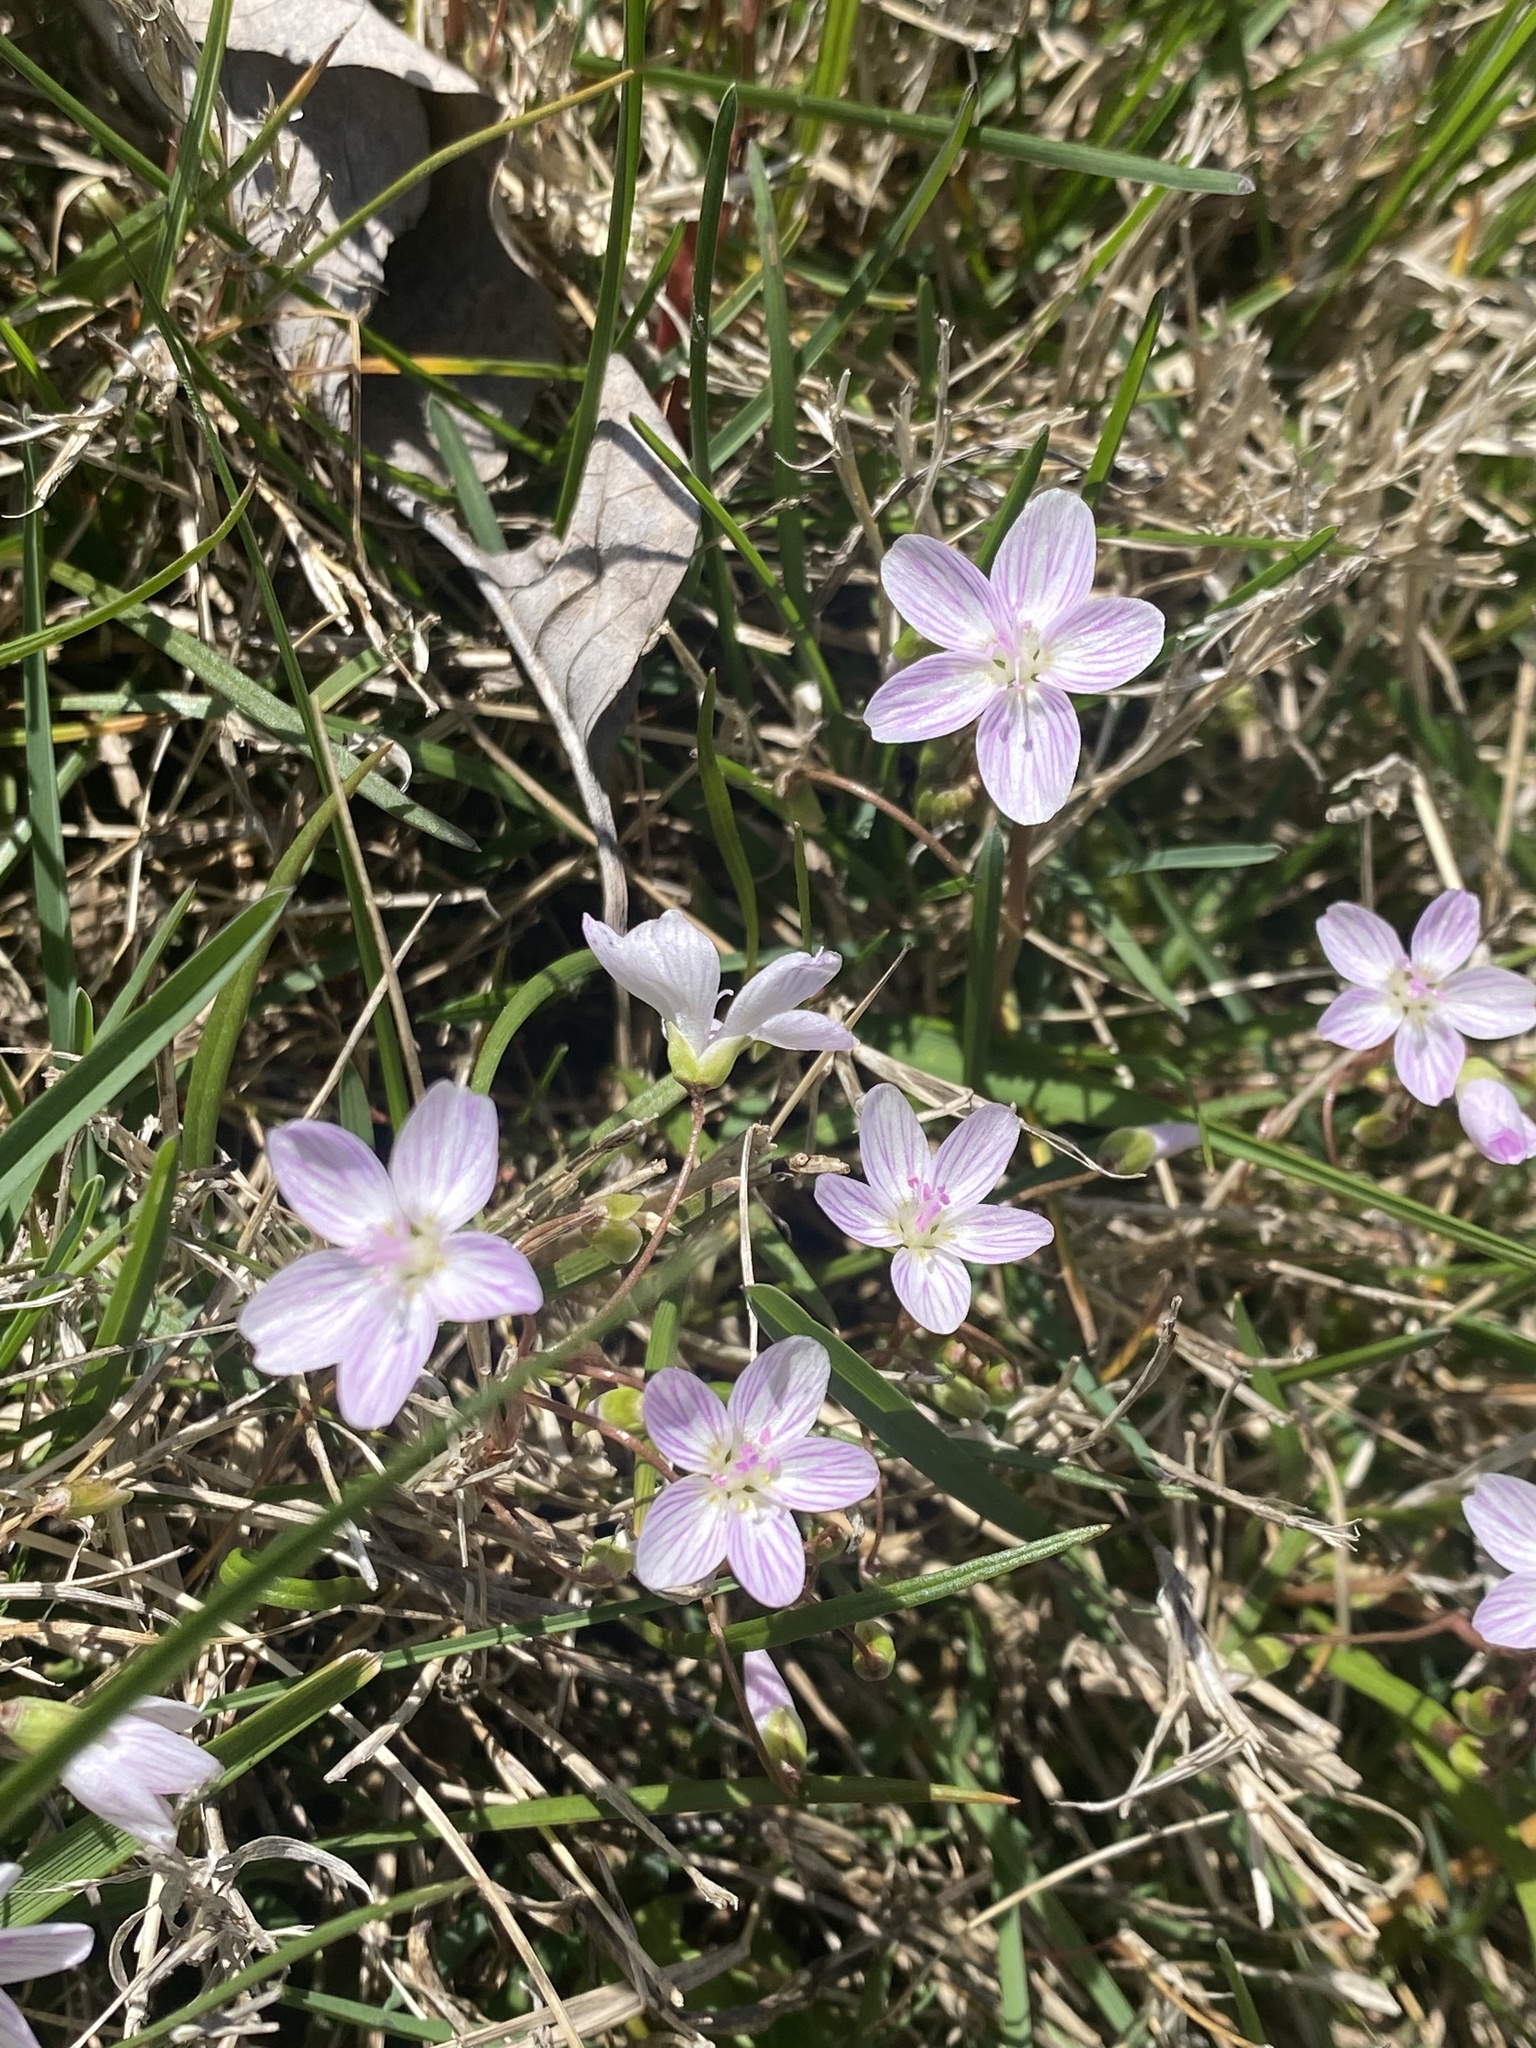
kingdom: Plantae
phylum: Tracheophyta
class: Magnoliopsida
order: Caryophyllales
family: Montiaceae
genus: Claytonia
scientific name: Claytonia virginica
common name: Virginia springbeauty
